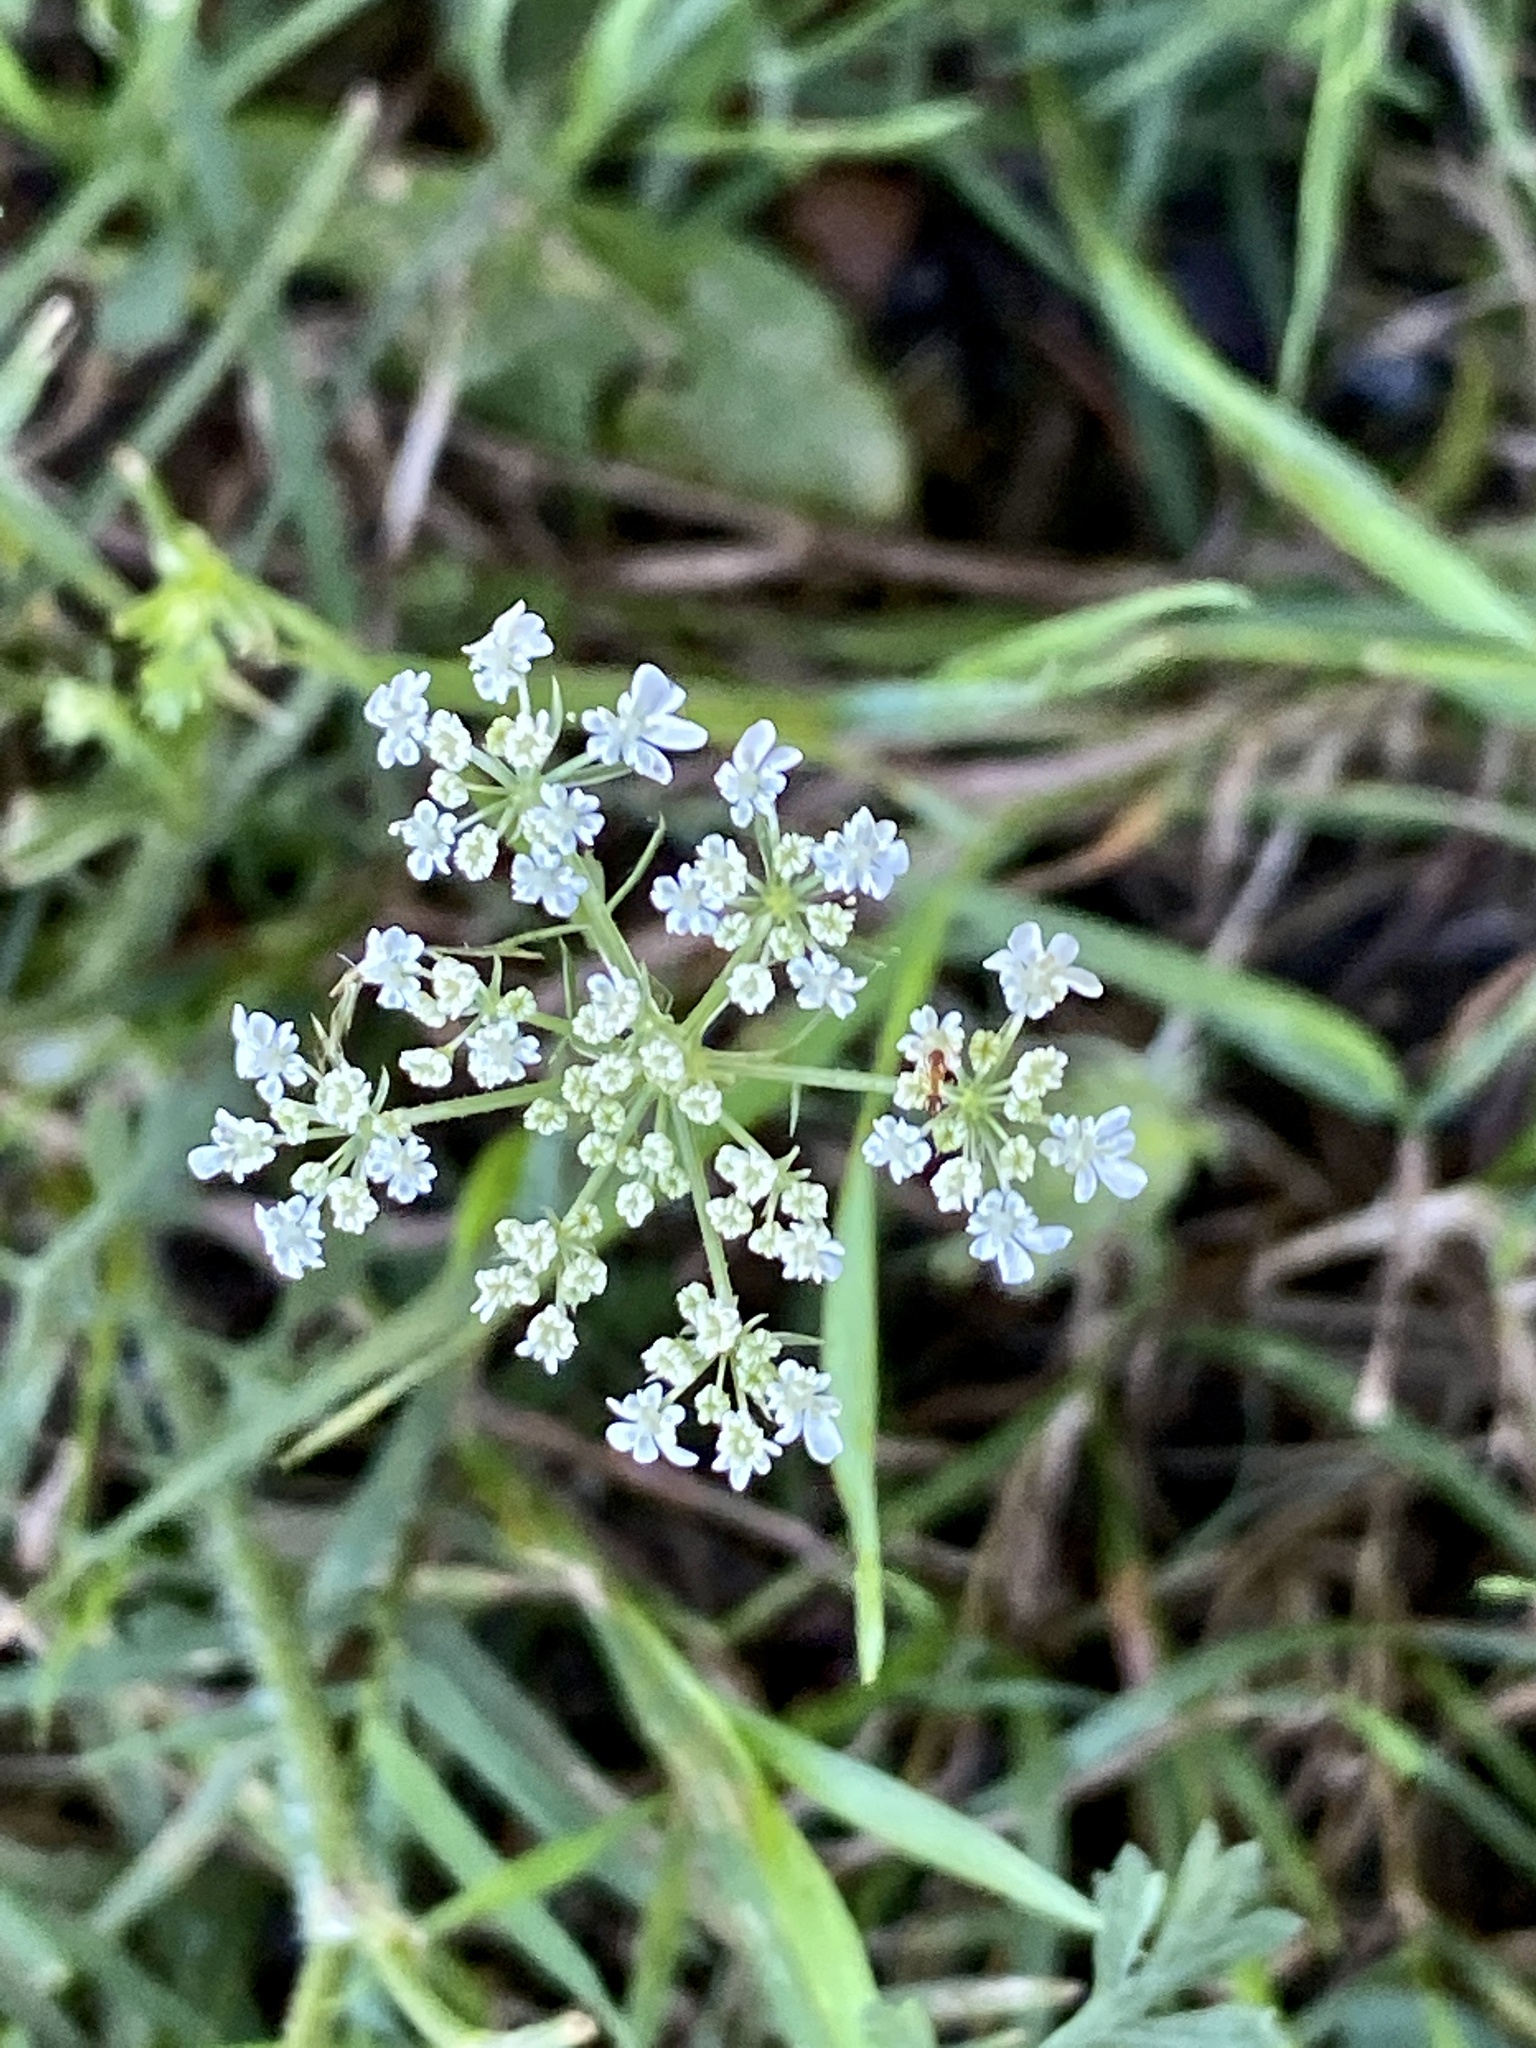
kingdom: Plantae
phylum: Tracheophyta
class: Magnoliopsida
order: Apiales
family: Apiaceae
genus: Daucus
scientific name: Daucus carota
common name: Wild carrot
